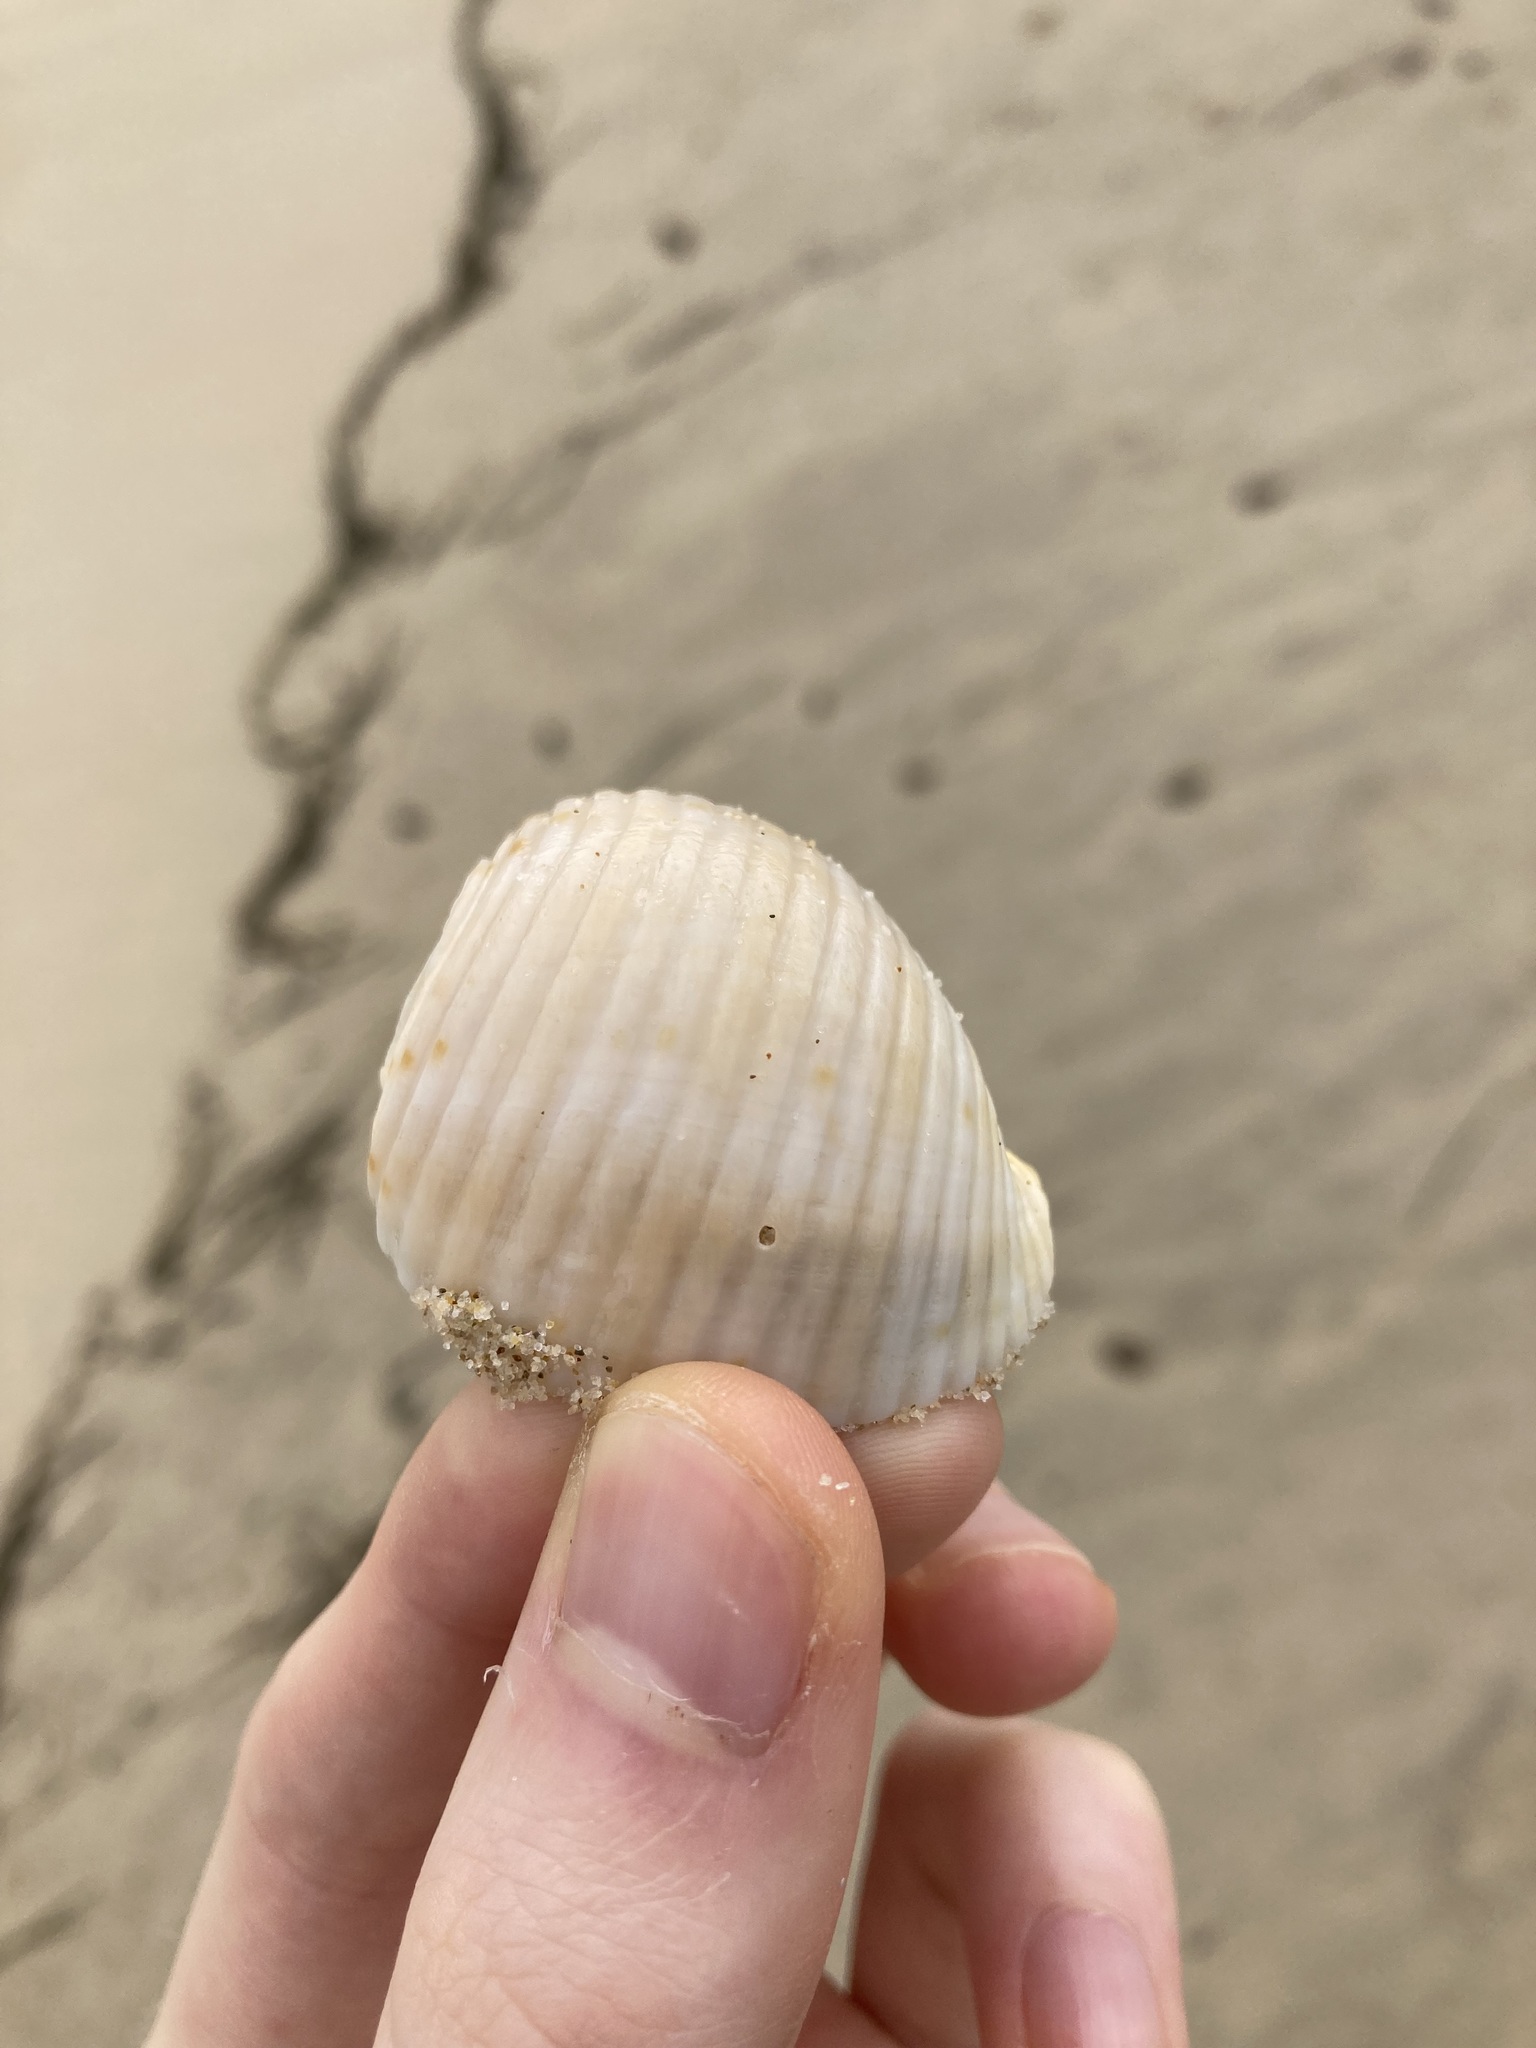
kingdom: Animalia
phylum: Mollusca
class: Gastropoda
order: Littorinimorpha
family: Tonnidae
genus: Tonna
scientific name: Tonna tankervillii
